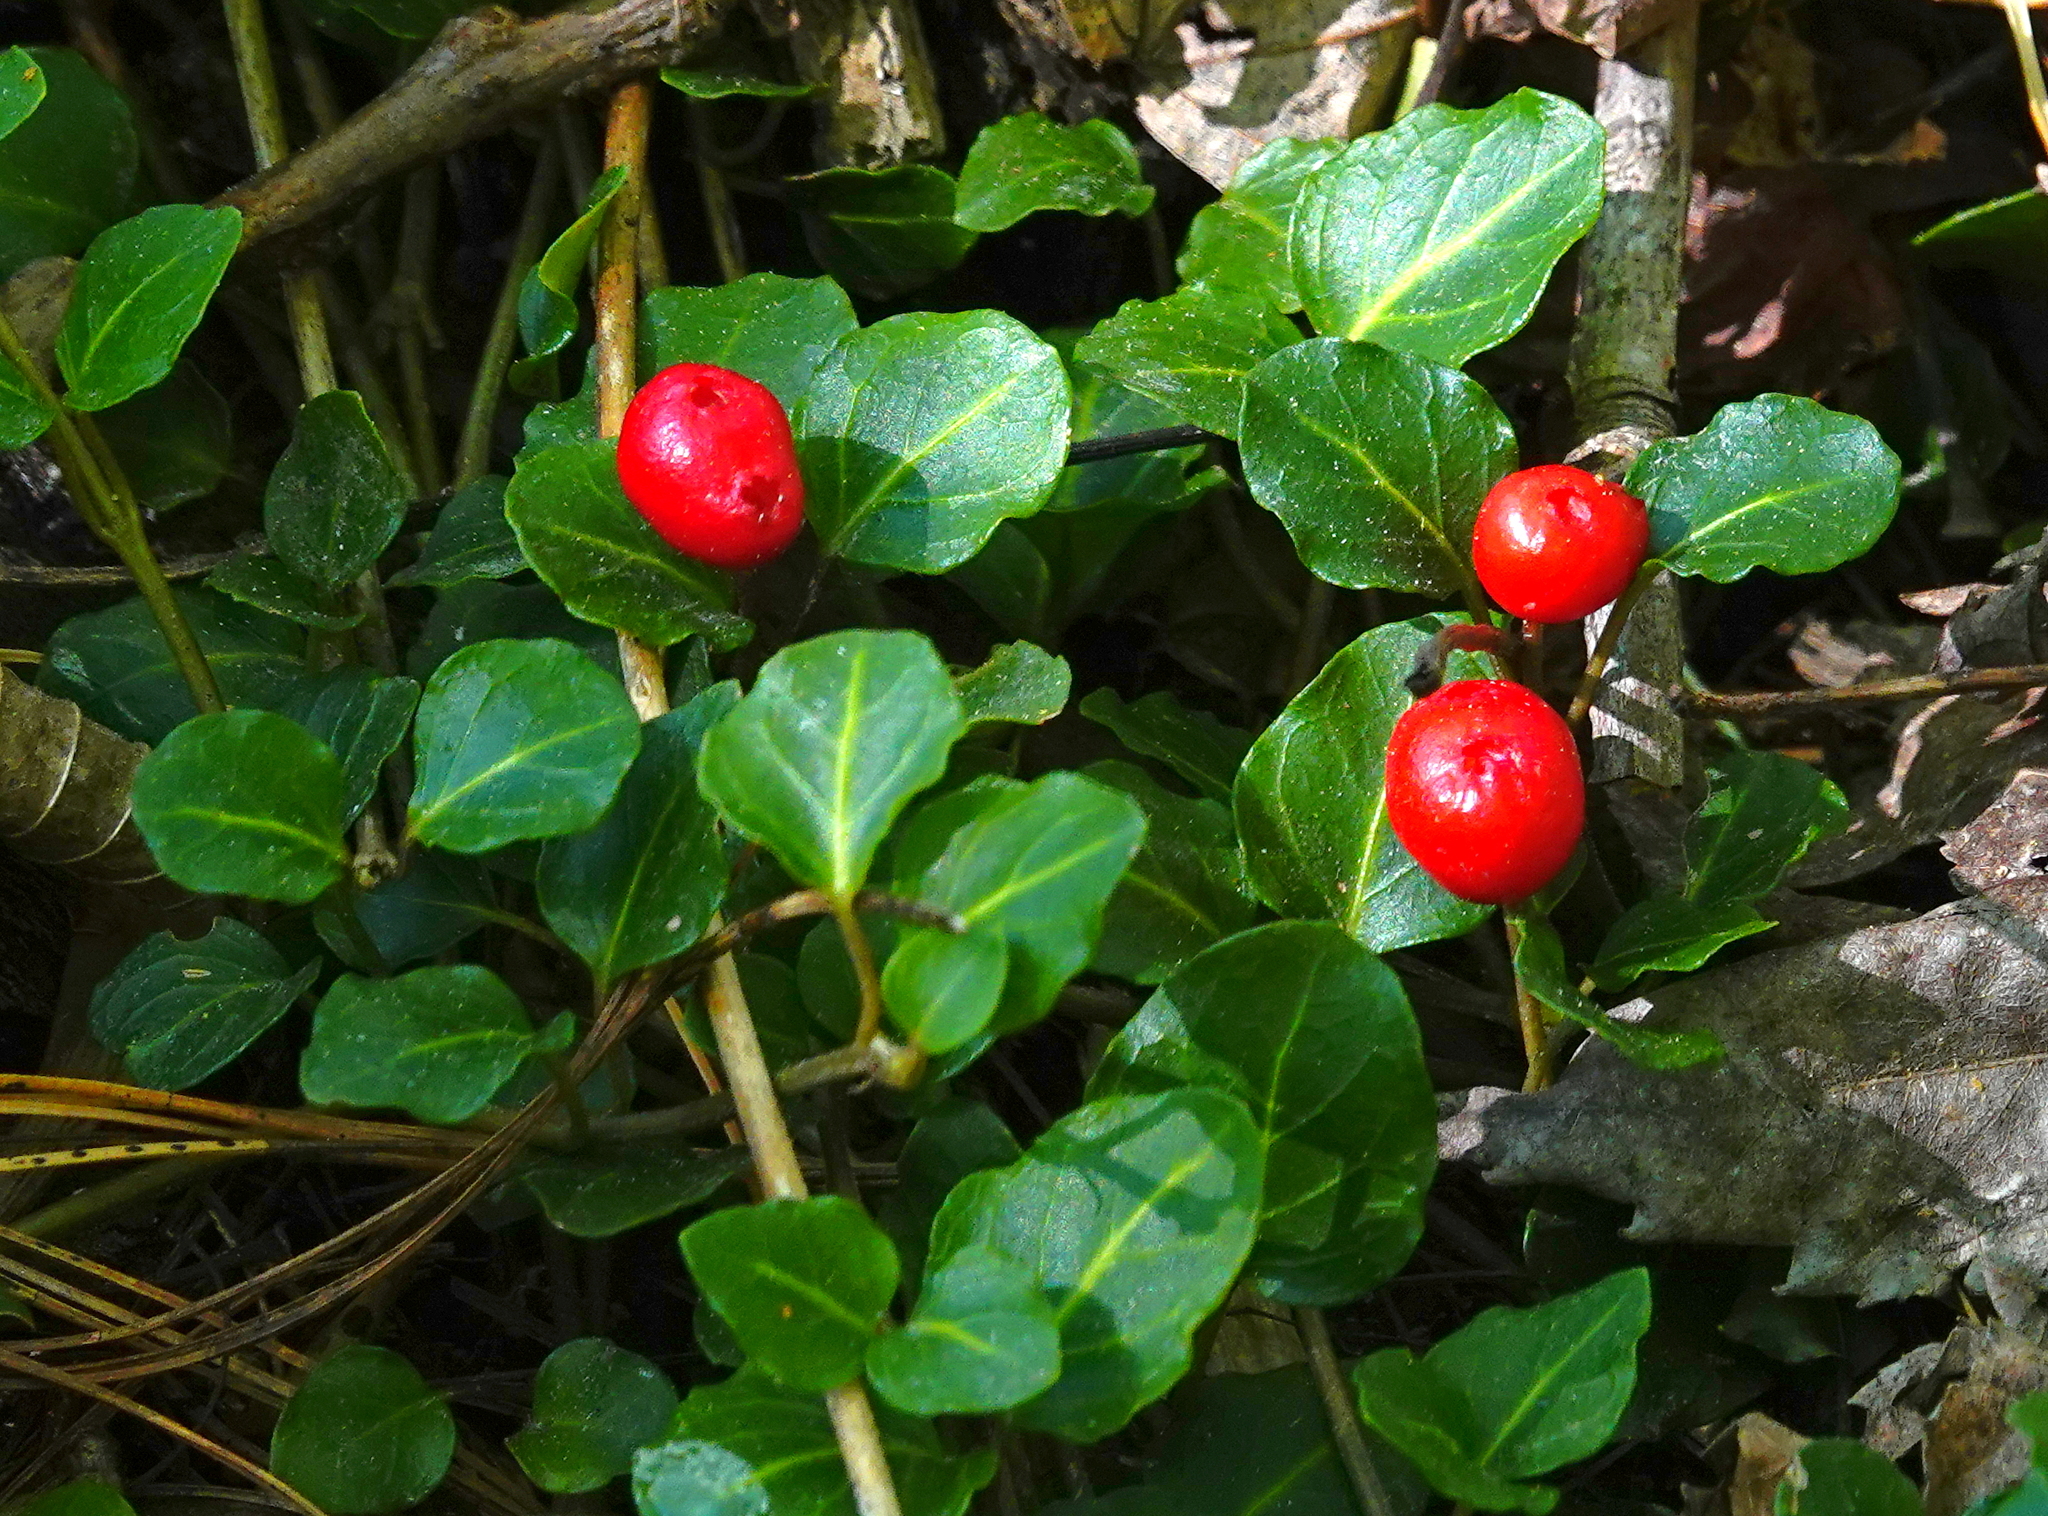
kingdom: Plantae
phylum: Tracheophyta
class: Magnoliopsida
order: Gentianales
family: Rubiaceae
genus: Mitchella
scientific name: Mitchella repens
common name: Partridge-berry
